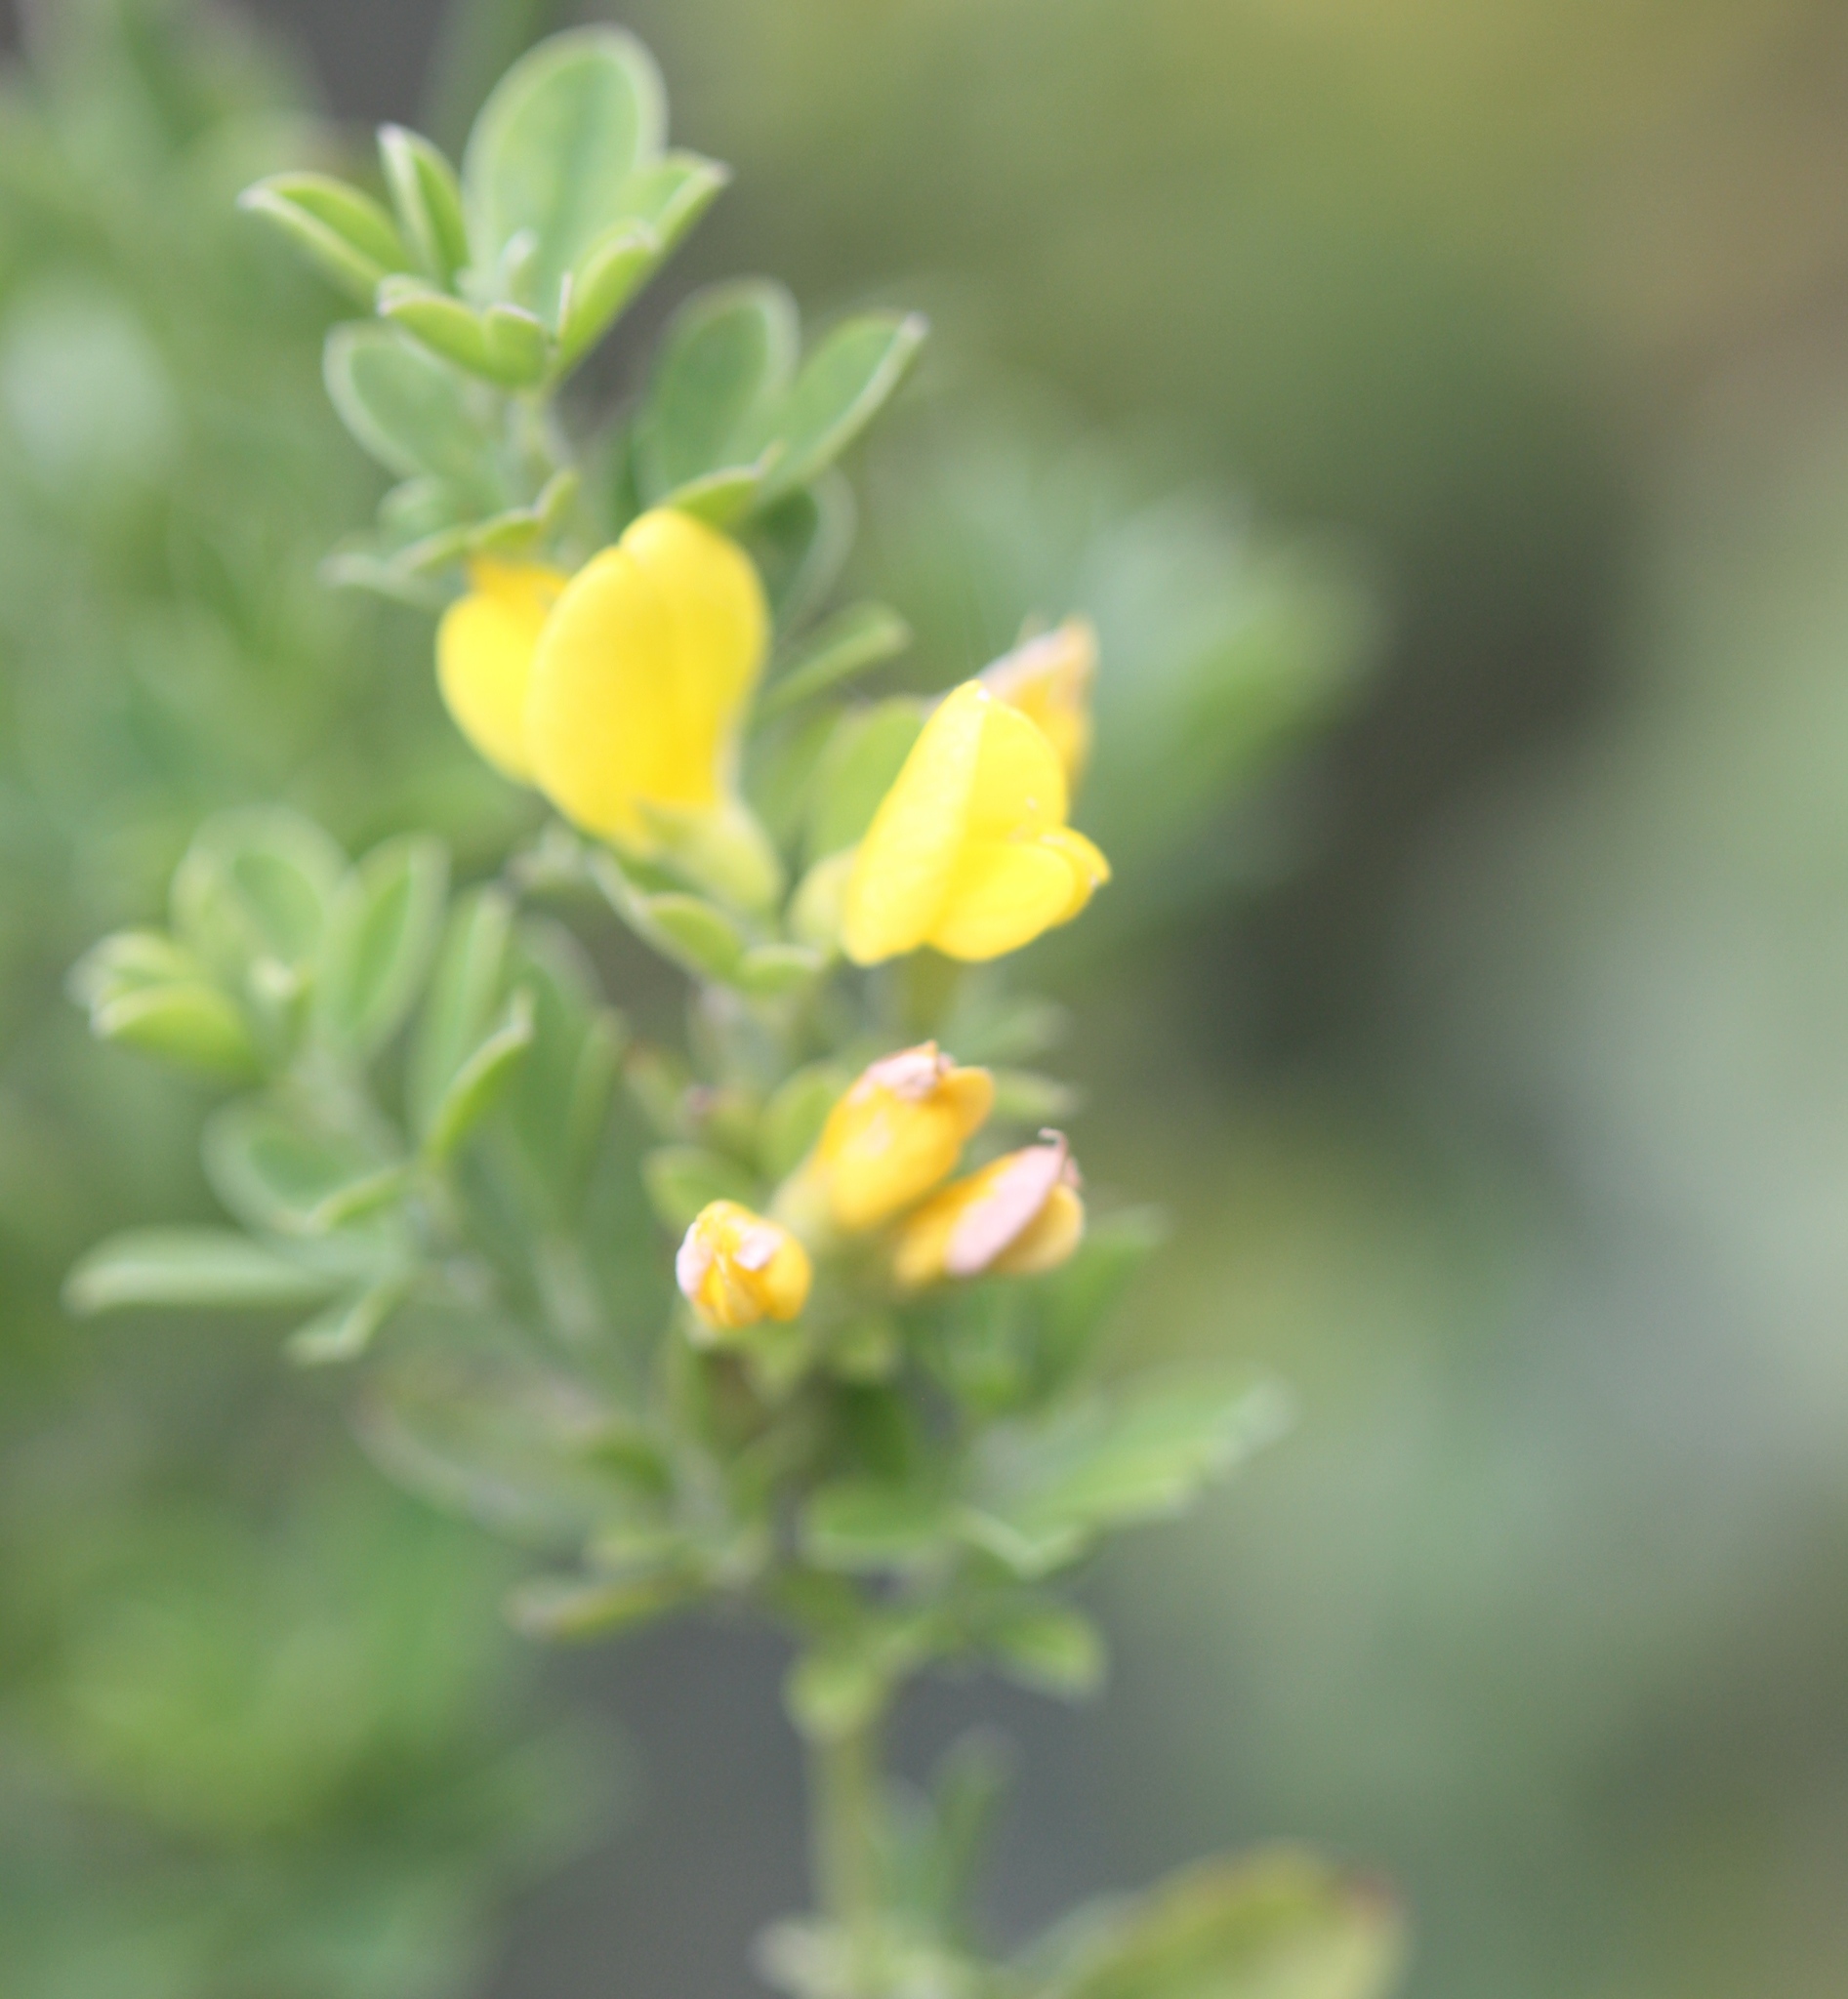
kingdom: Plantae
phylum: Tracheophyta
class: Magnoliopsida
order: Fabales
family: Fabaceae
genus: Genista
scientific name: Genista monspessulana
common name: Montpellier broom
